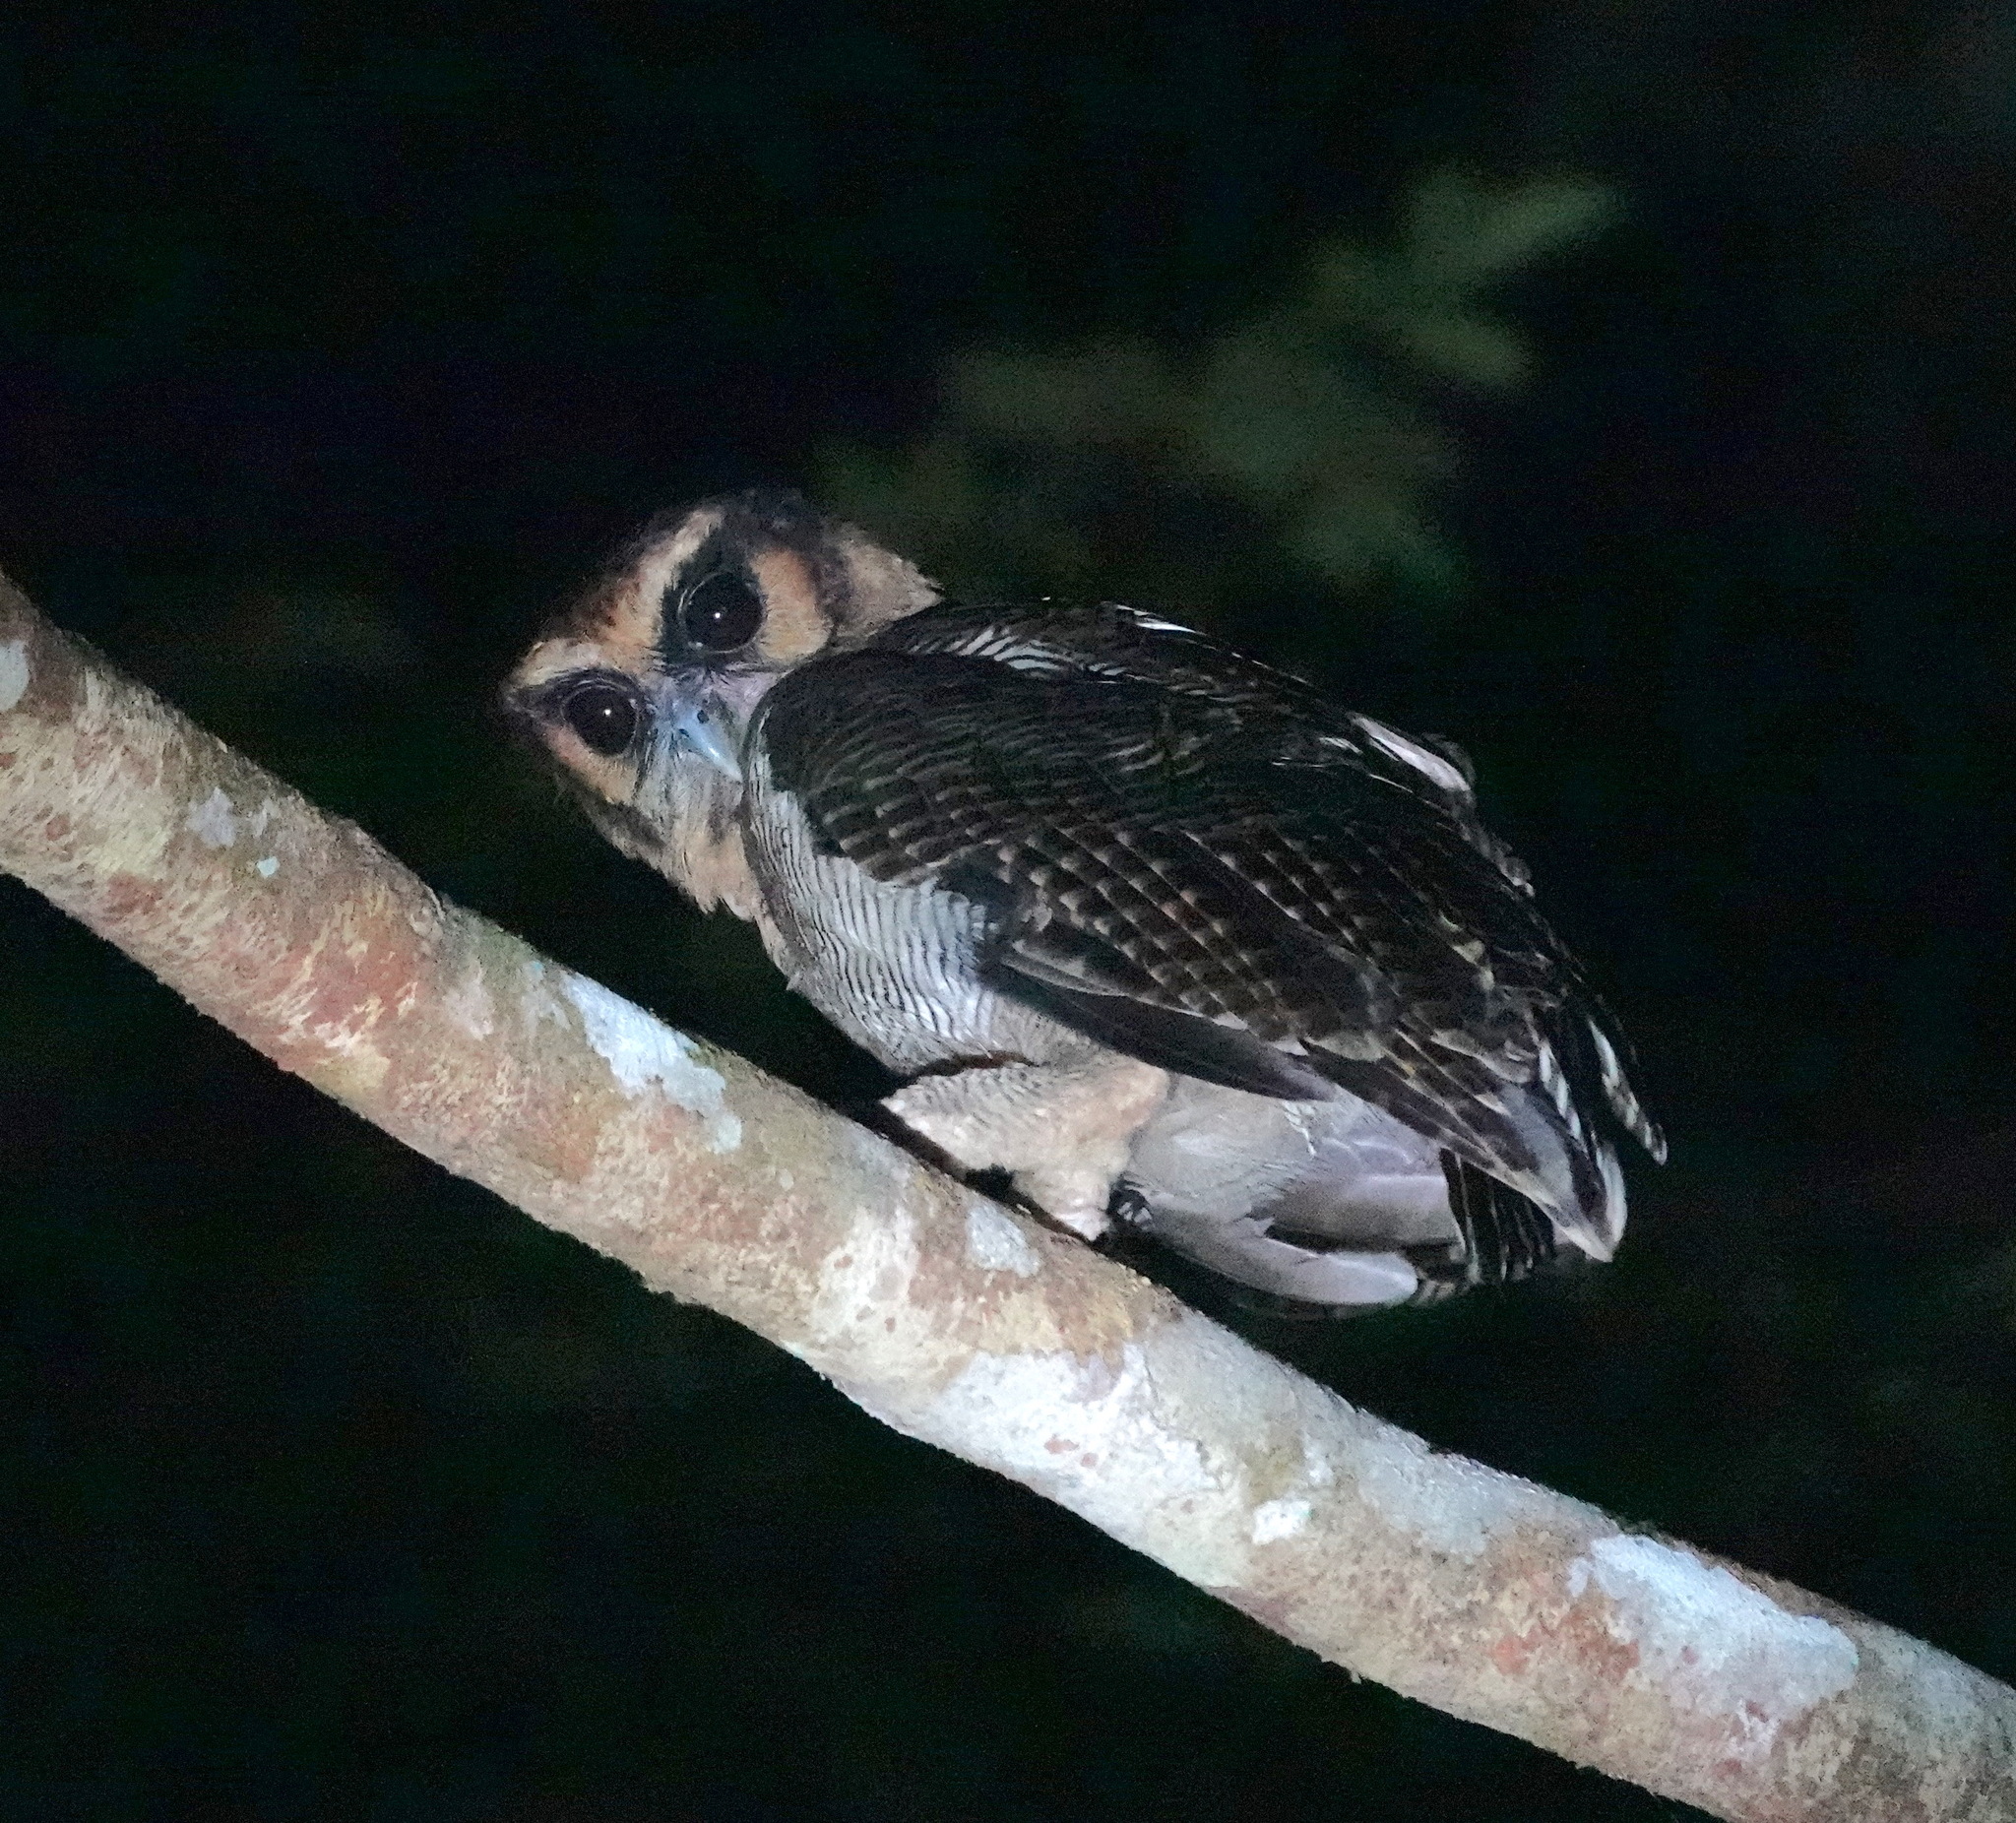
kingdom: Animalia
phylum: Chordata
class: Aves
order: Strigiformes
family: Strigidae
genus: Strix
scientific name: Strix leptogrammica
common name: Brown wood owl
